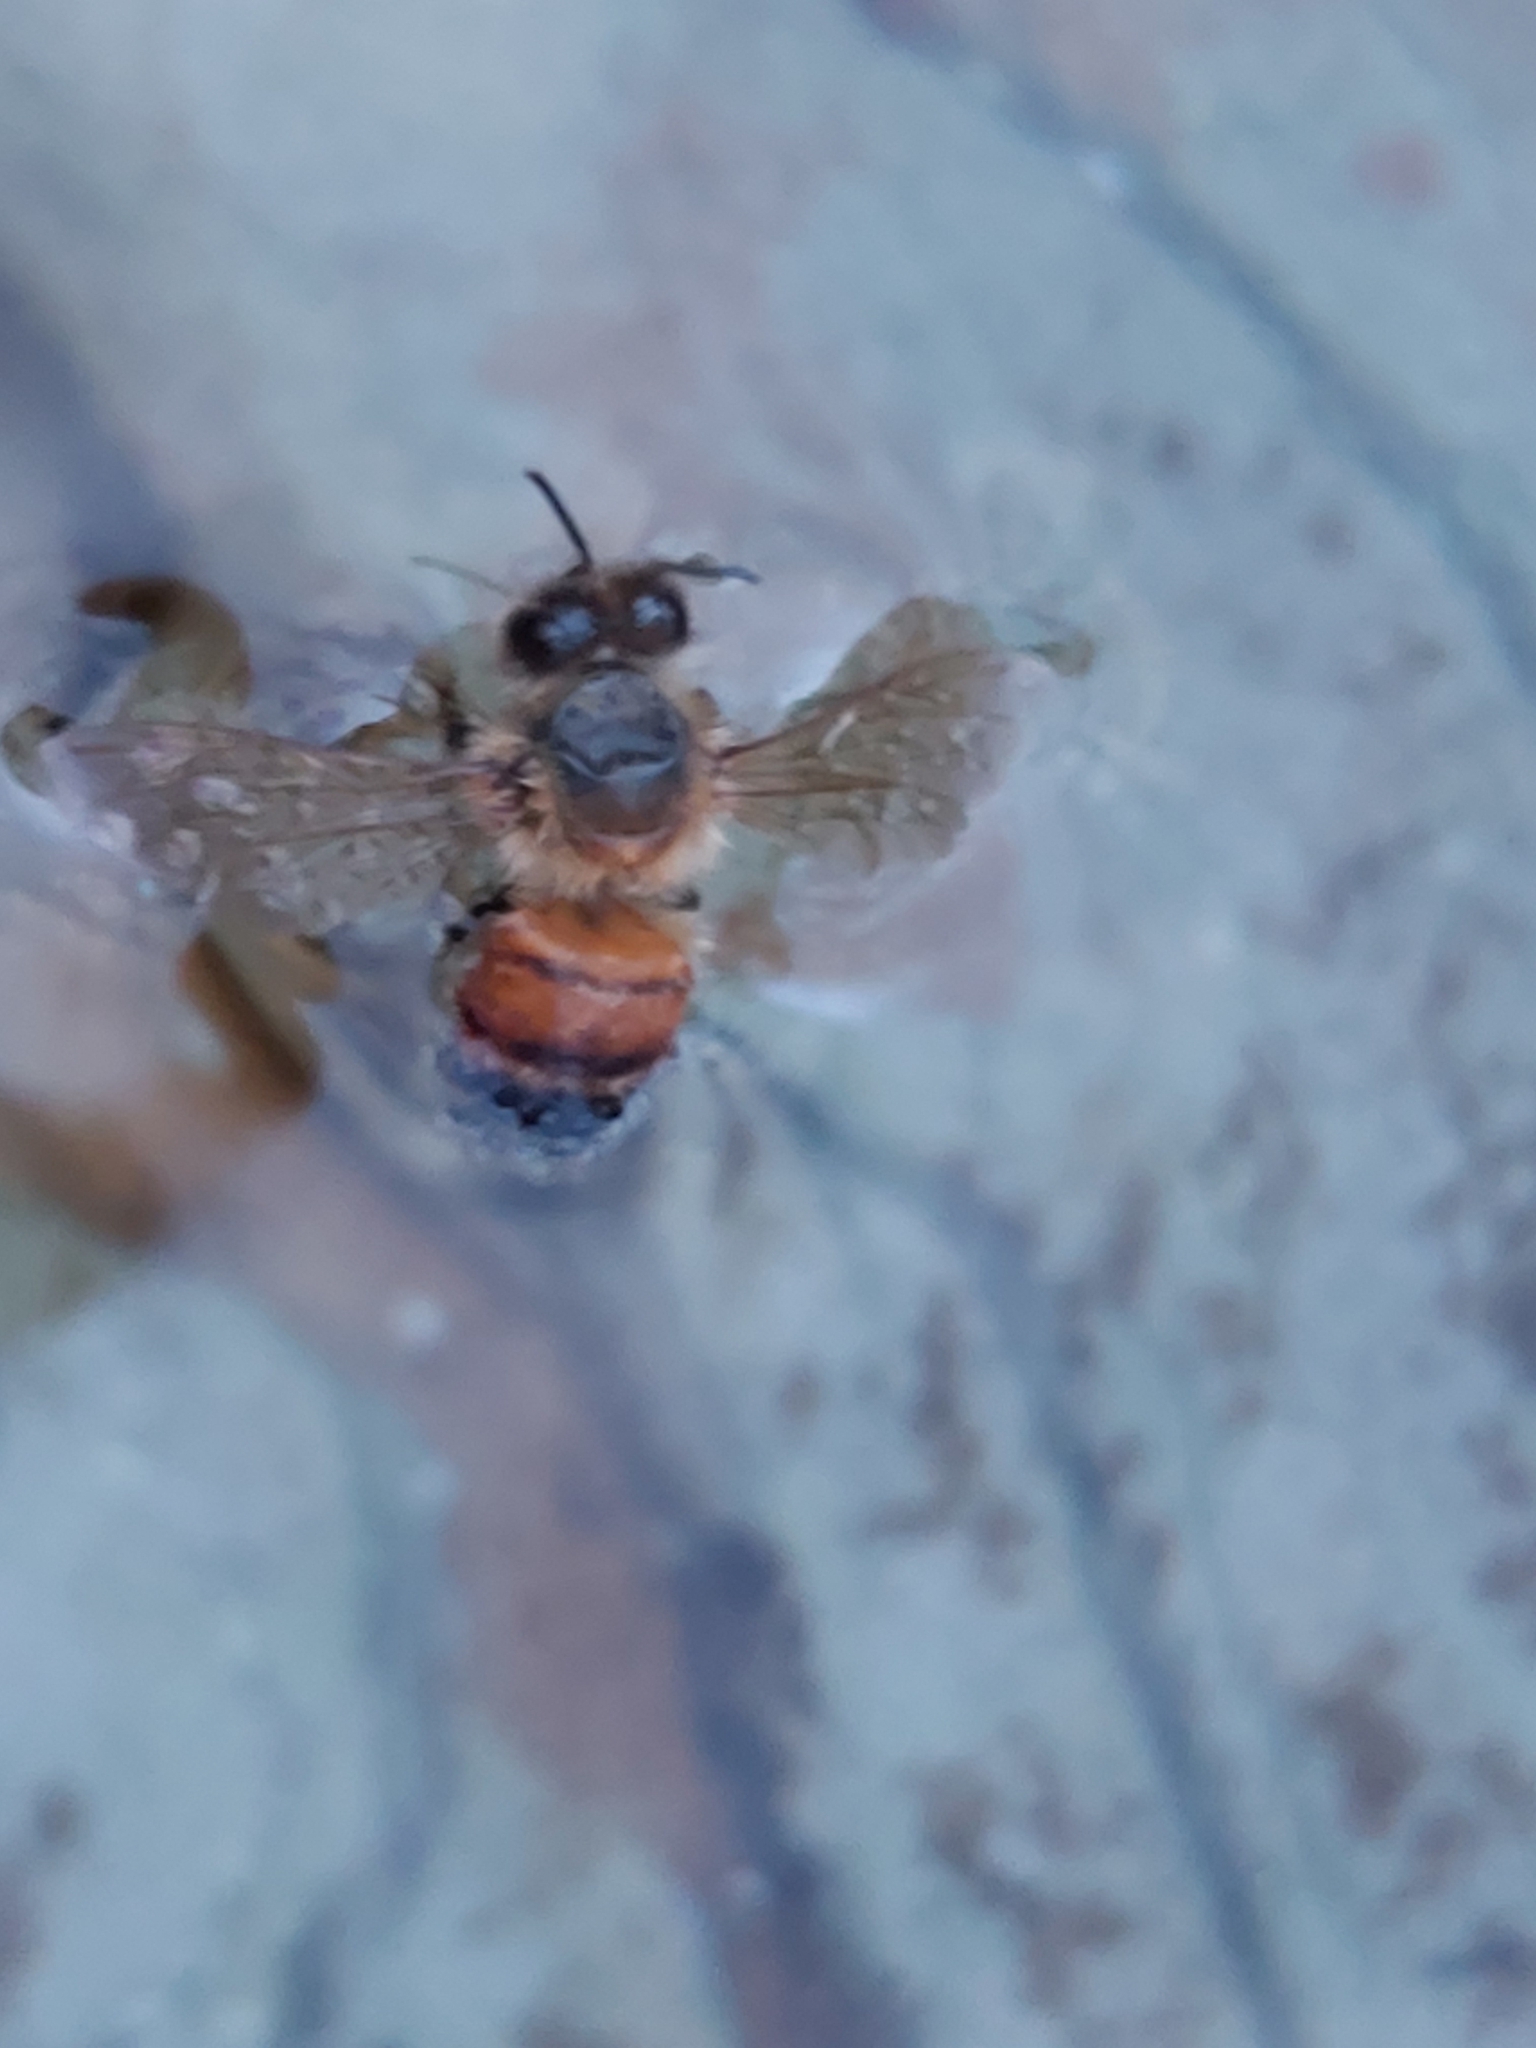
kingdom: Animalia
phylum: Arthropoda
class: Insecta
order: Hymenoptera
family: Apidae
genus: Apis
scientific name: Apis mellifera
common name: Honey bee
